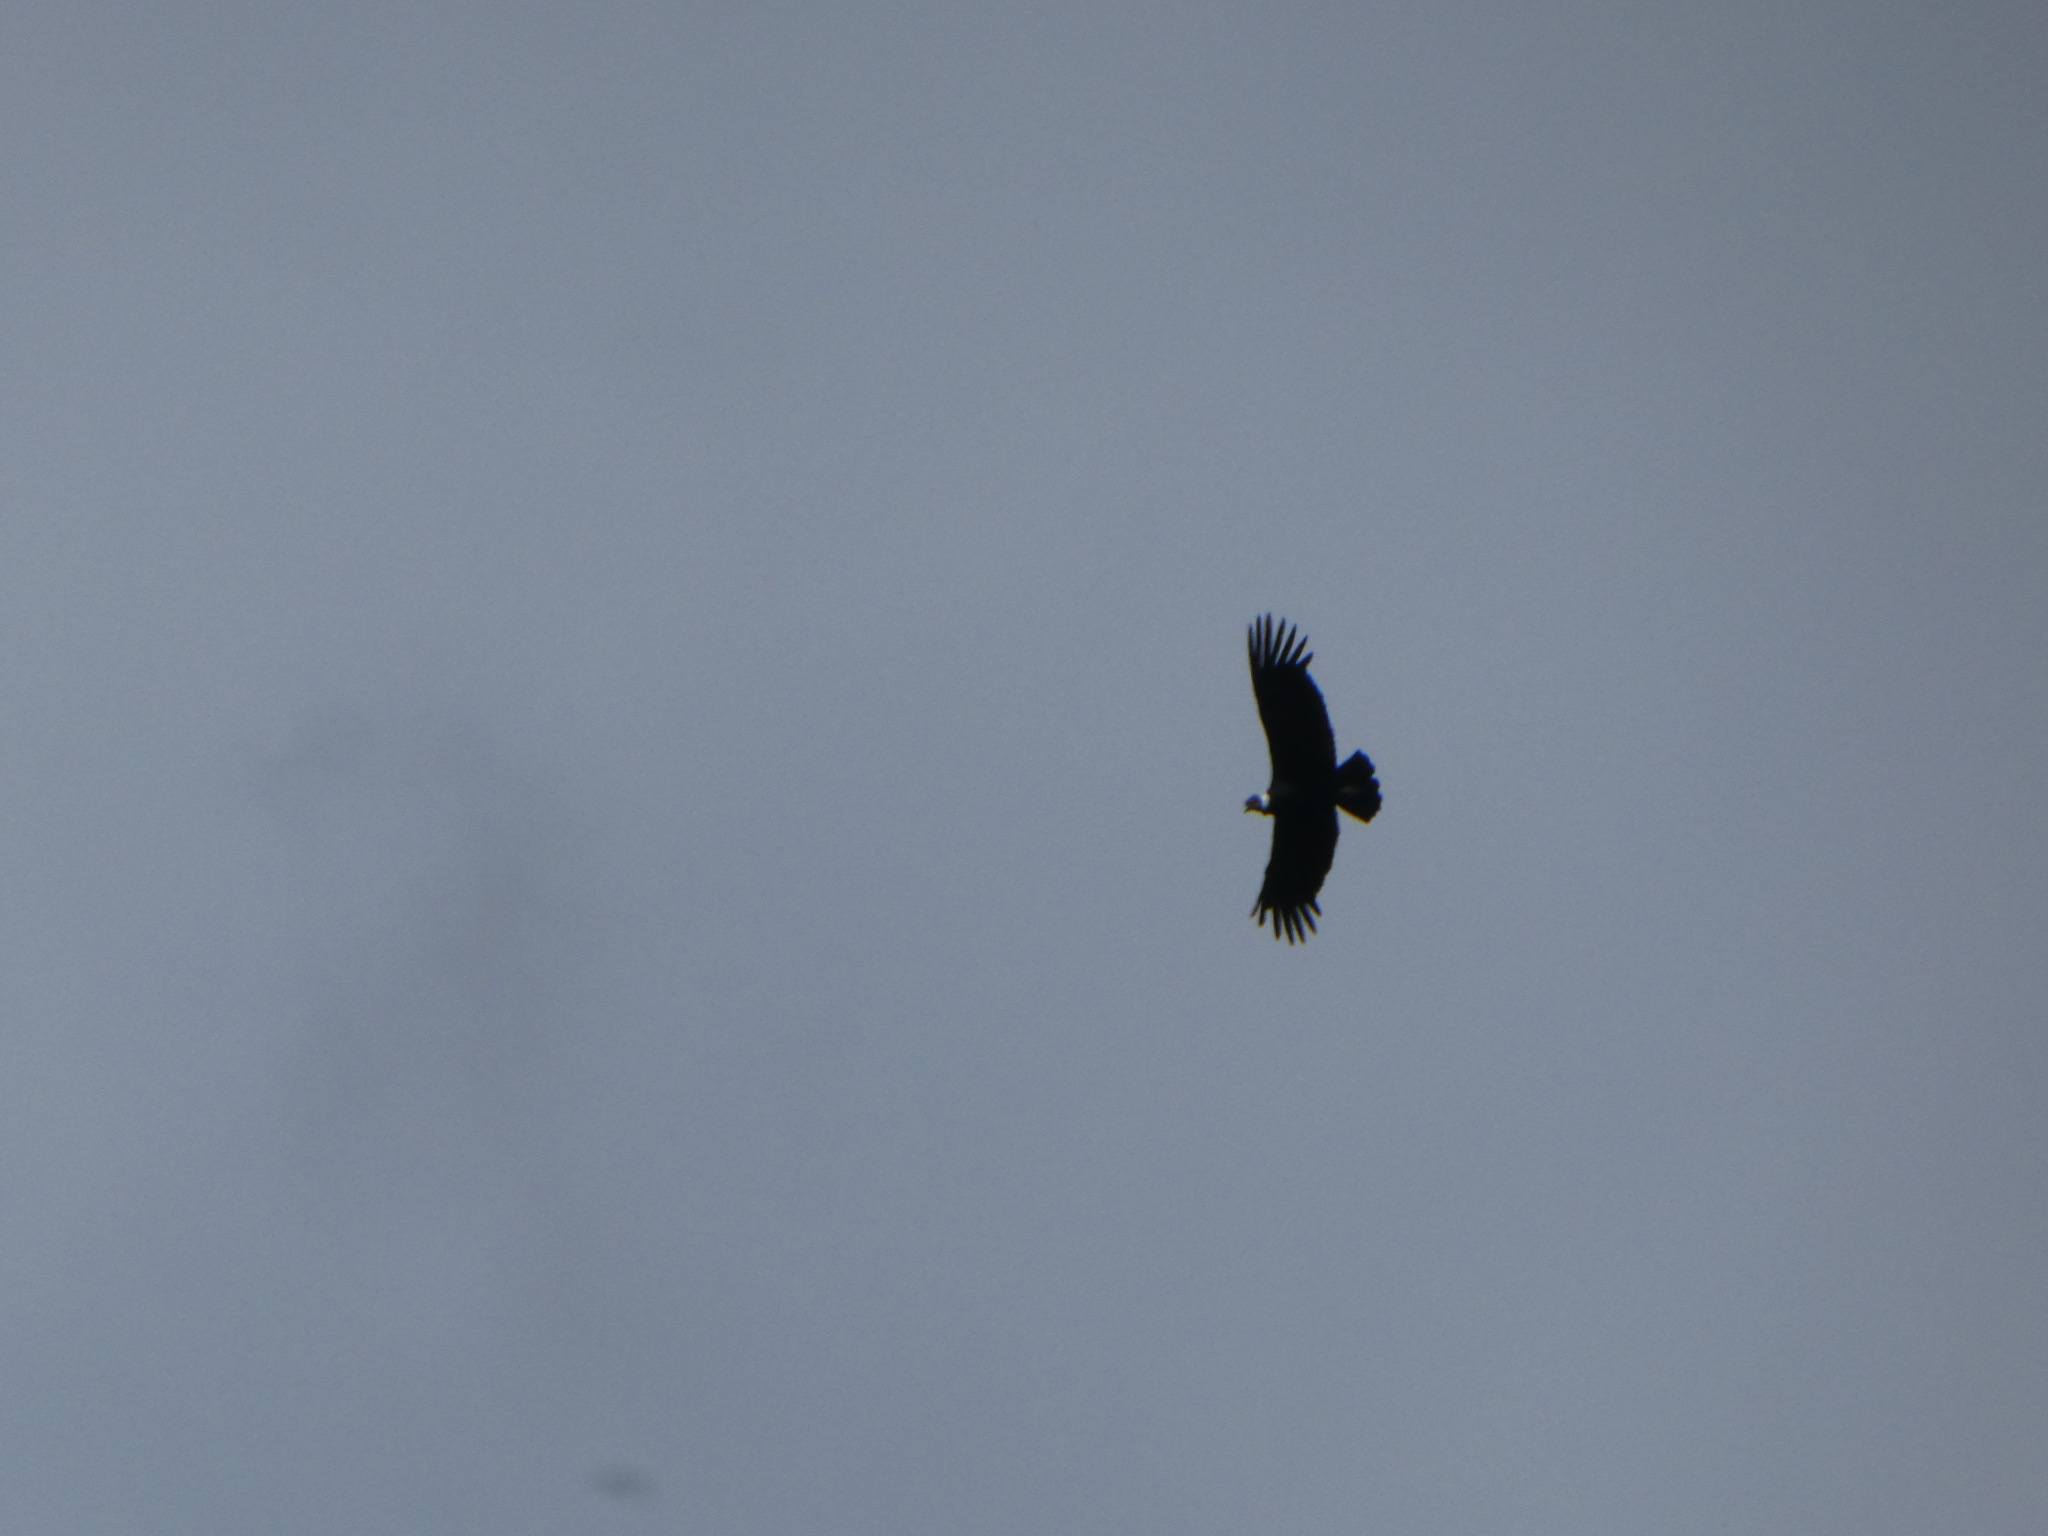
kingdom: Animalia
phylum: Chordata
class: Aves
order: Accipitriformes
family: Cathartidae
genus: Vultur
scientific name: Vultur gryphus
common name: Andean condor
